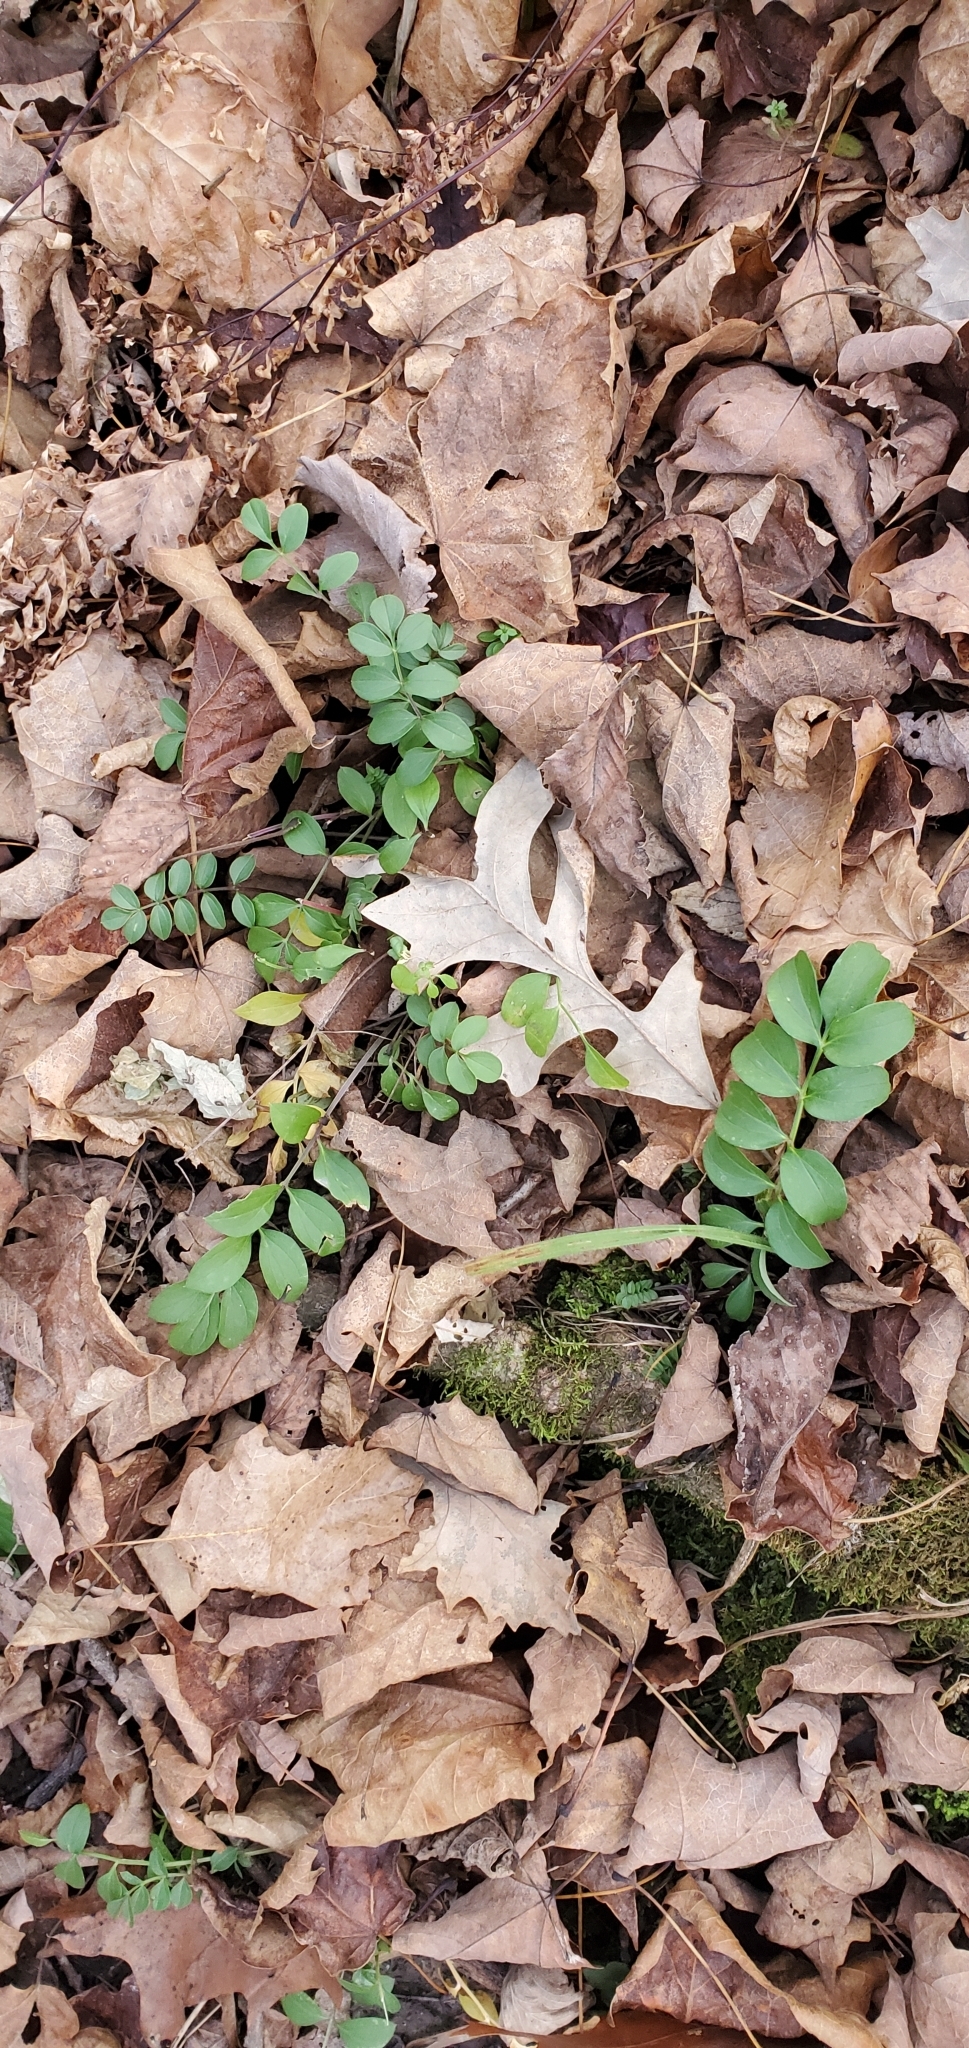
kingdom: Plantae
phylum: Tracheophyta
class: Magnoliopsida
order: Ericales
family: Polemoniaceae
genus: Polemonium
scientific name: Polemonium reptans
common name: Creeping jacob's-ladder
